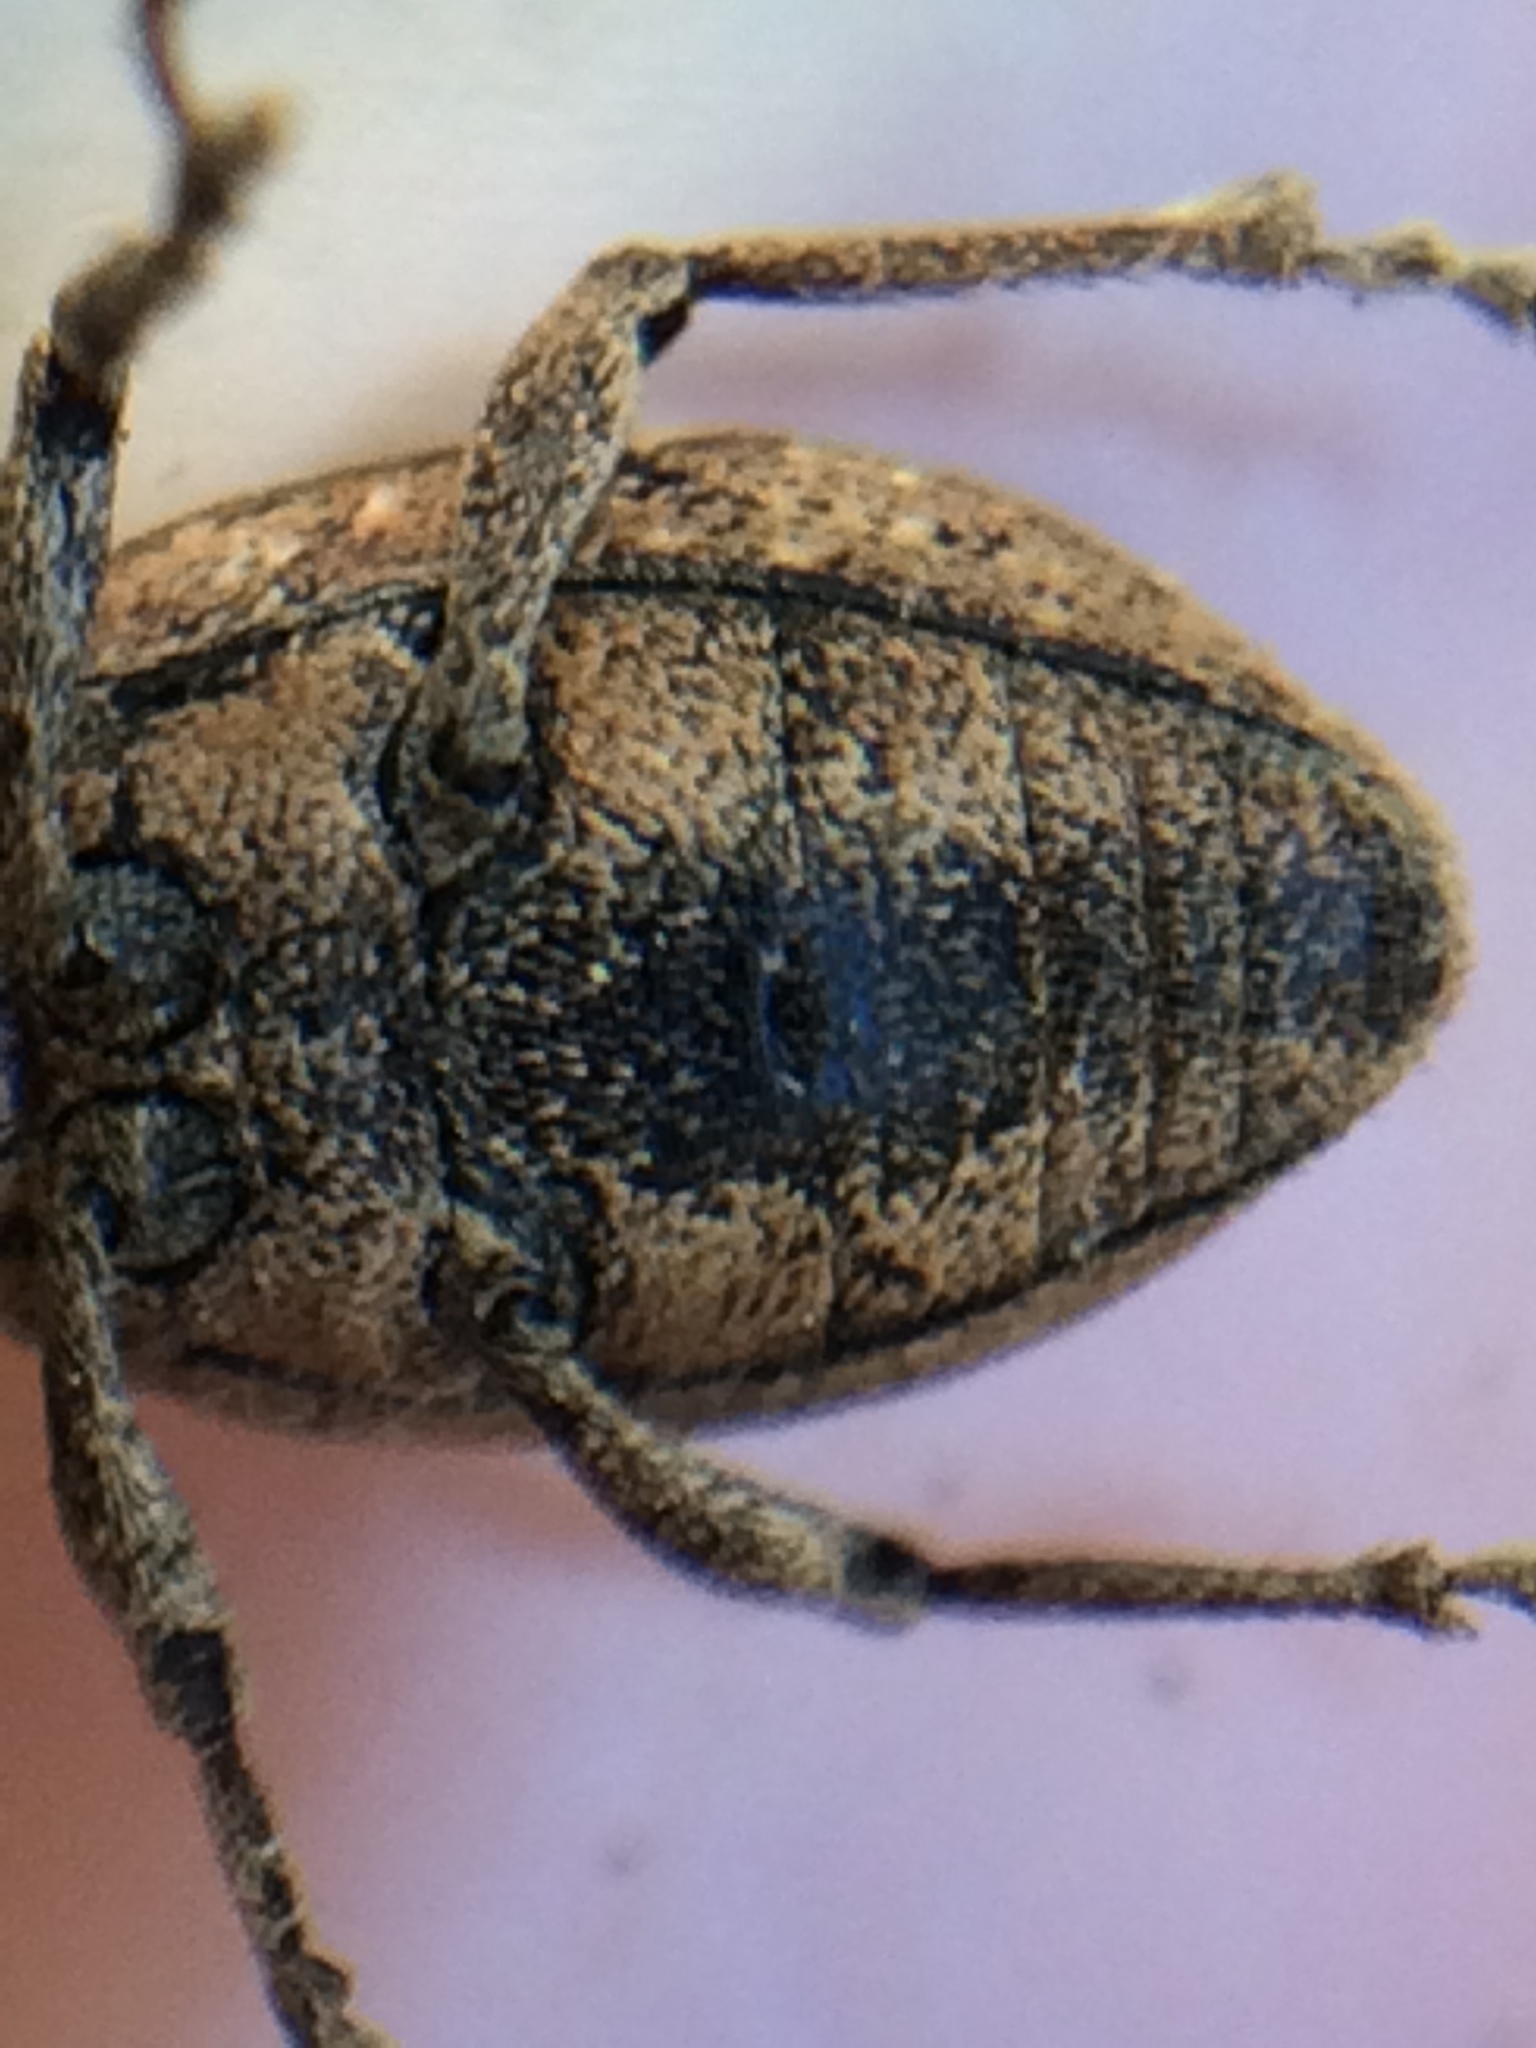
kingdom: Animalia
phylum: Arthropoda
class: Insecta
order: Coleoptera
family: Curculionidae
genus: Naupactus
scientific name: Naupactus cervinus
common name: Fuller rose beetle
